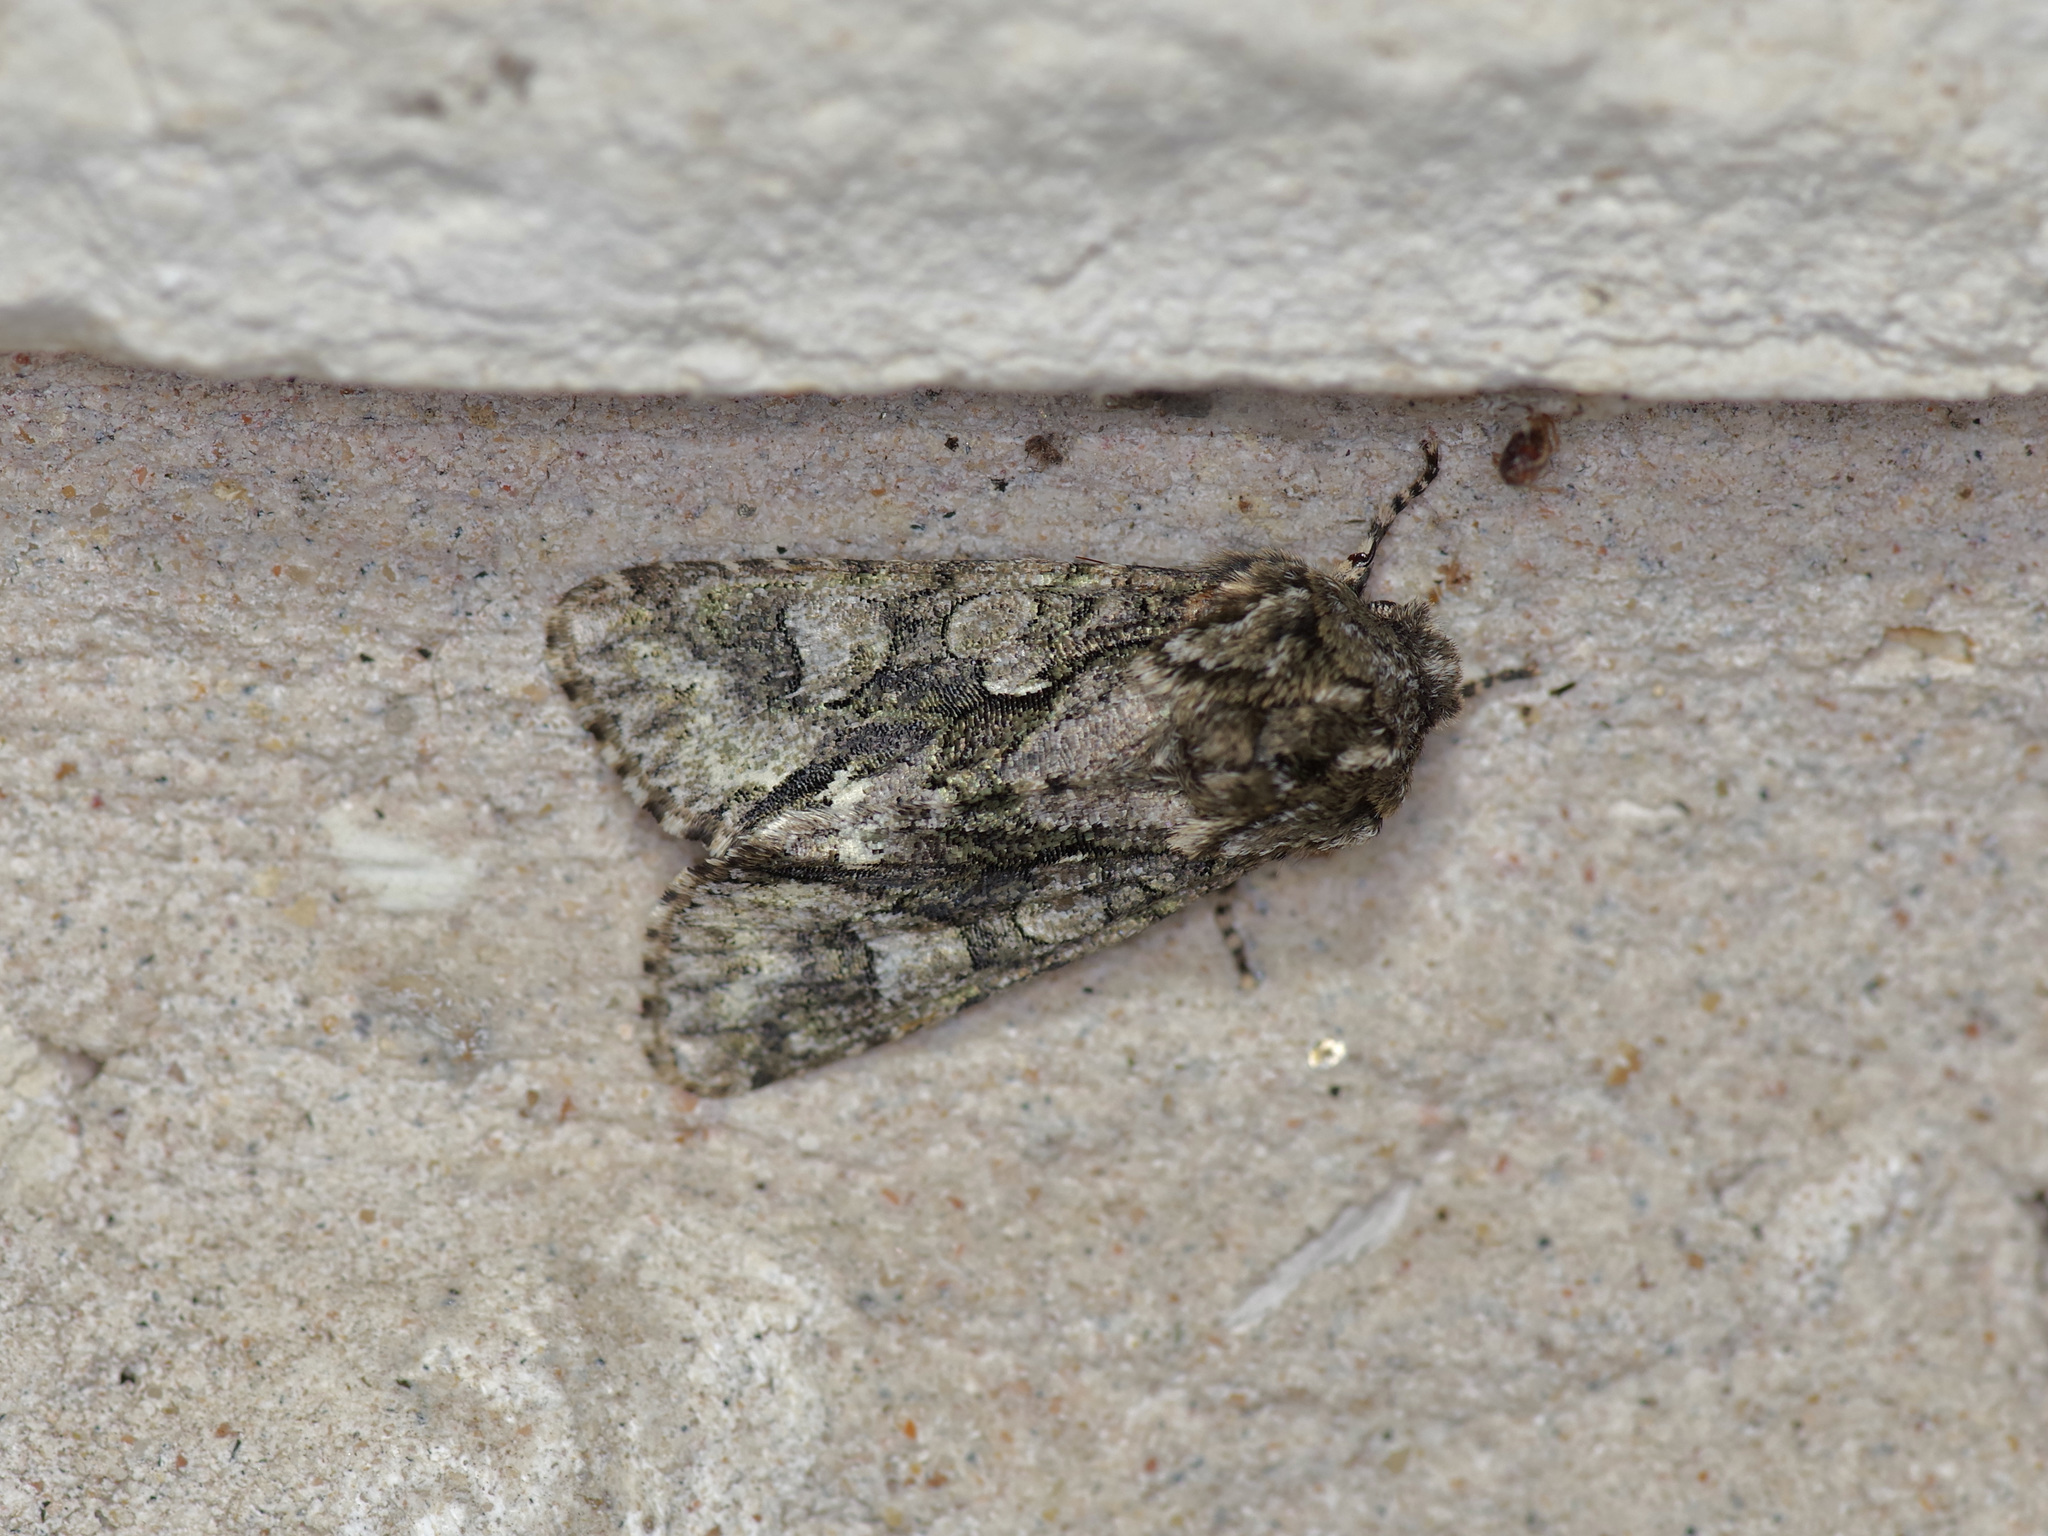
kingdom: Animalia
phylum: Arthropoda
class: Insecta
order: Lepidoptera
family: Noctuidae
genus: Psaphida
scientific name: Psaphida resumens
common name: Figure-eight sallow
